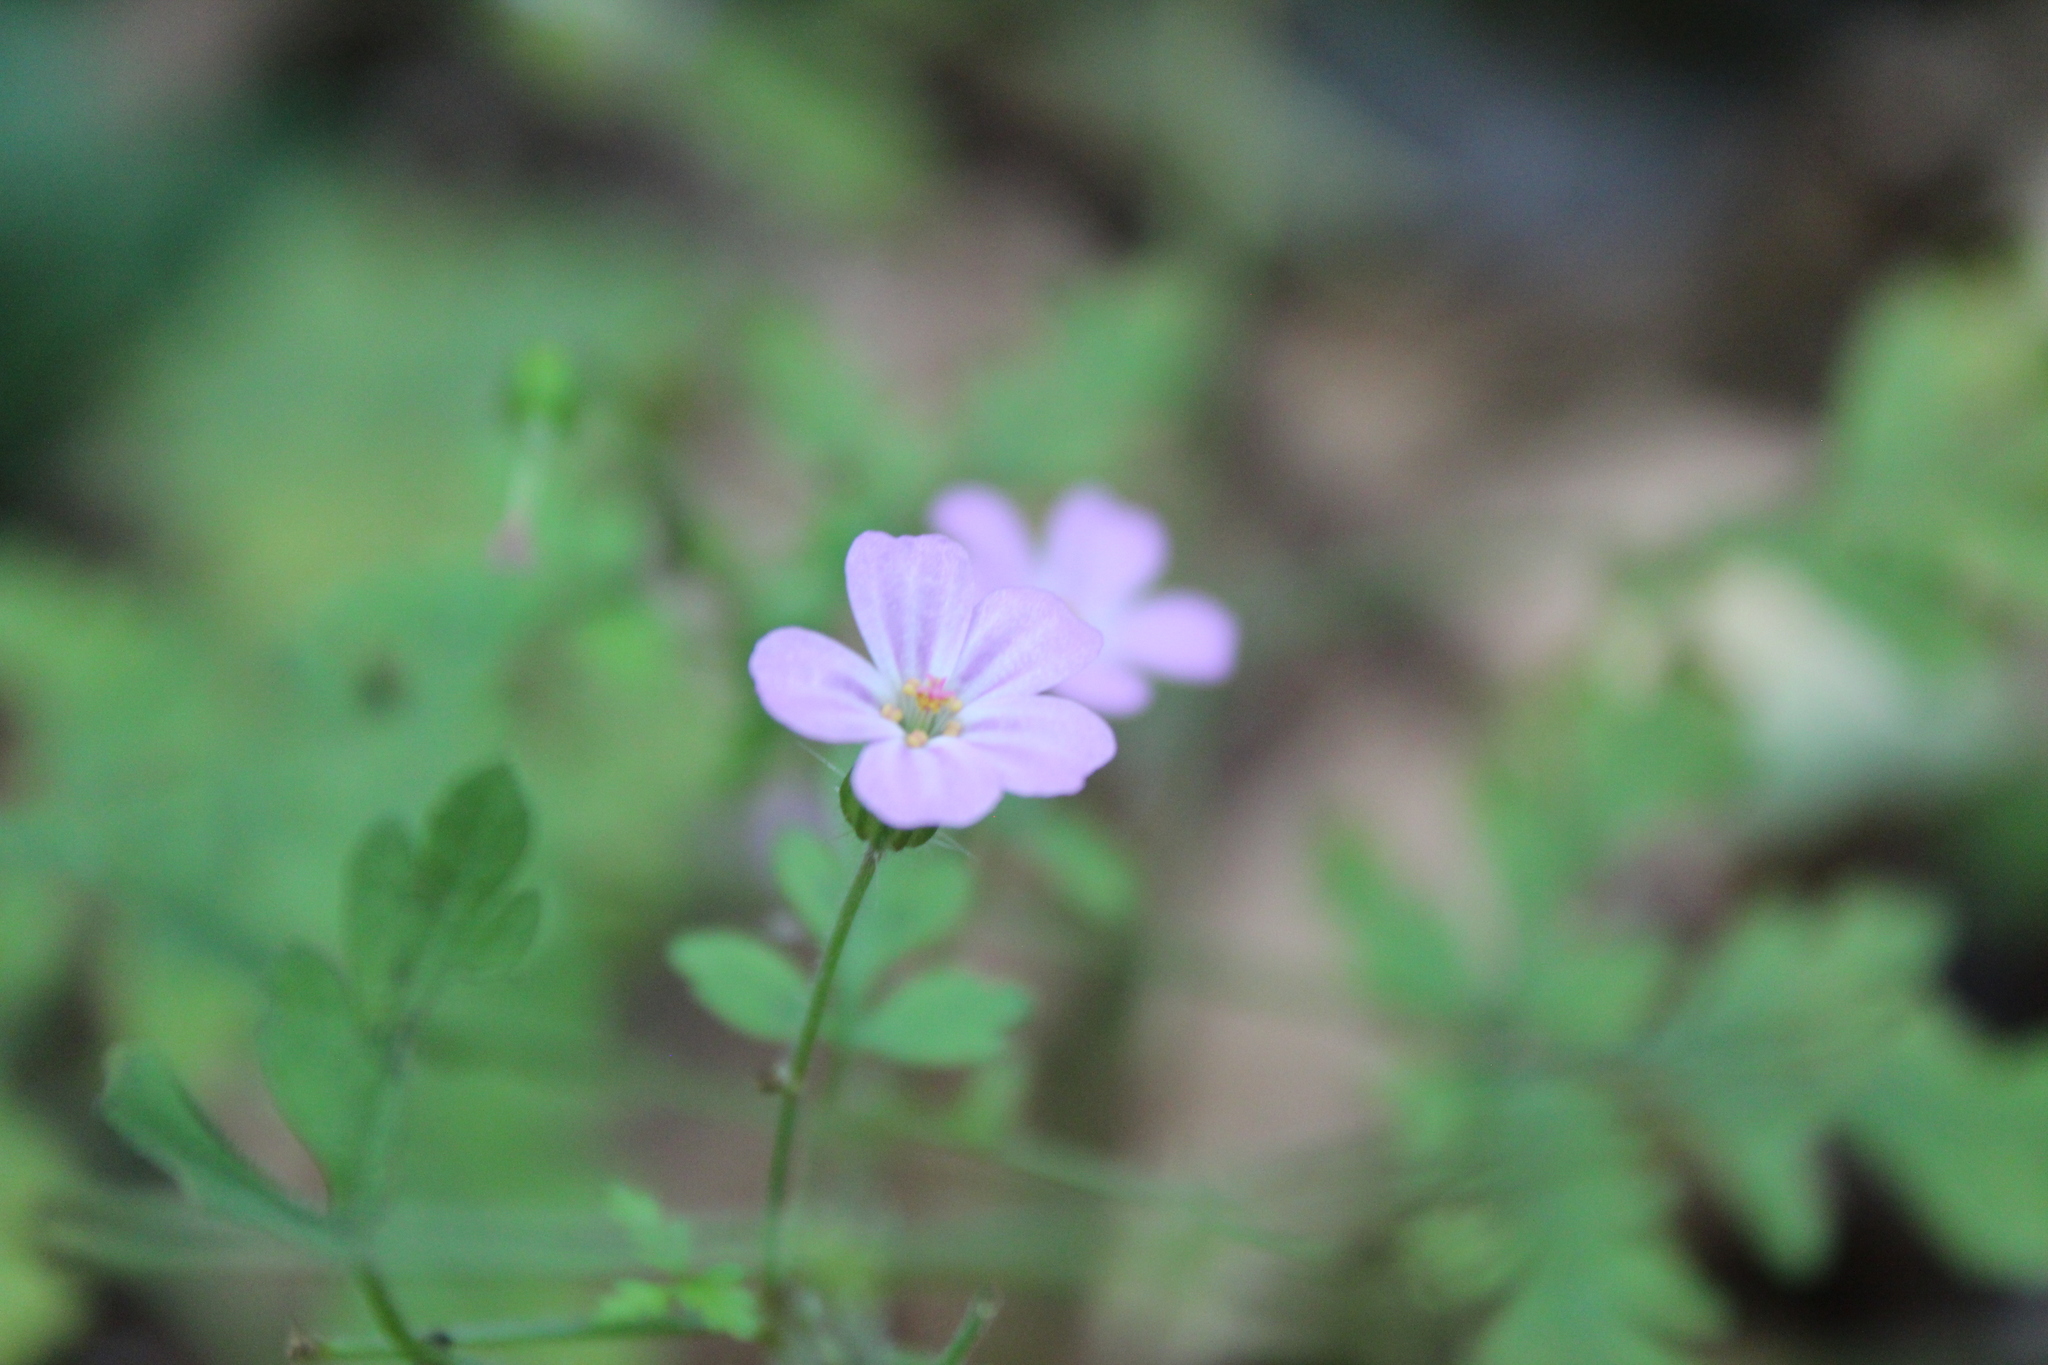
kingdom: Plantae
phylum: Tracheophyta
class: Magnoliopsida
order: Geraniales
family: Geraniaceae
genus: Geranium
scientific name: Geranium robertianum
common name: Herb-robert
